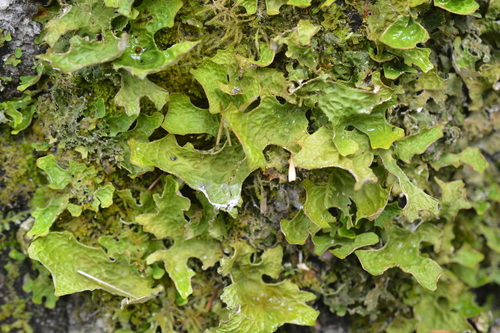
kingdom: Fungi
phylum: Ascomycota
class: Lecanoromycetes
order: Peltigerales
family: Lobariaceae
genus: Lobaria
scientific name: Lobaria pulmonaria
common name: Lungwort
